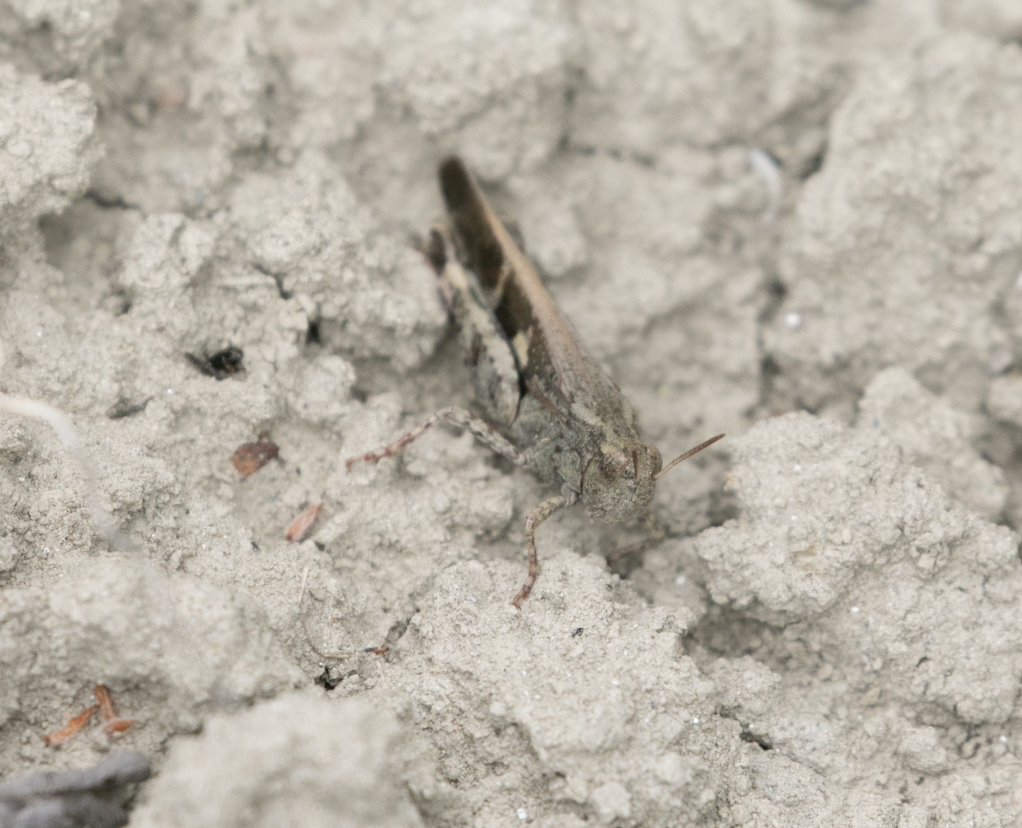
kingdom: Animalia
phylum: Arthropoda
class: Insecta
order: Orthoptera
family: Acrididae
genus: Aiolopus
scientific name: Aiolopus strepens
